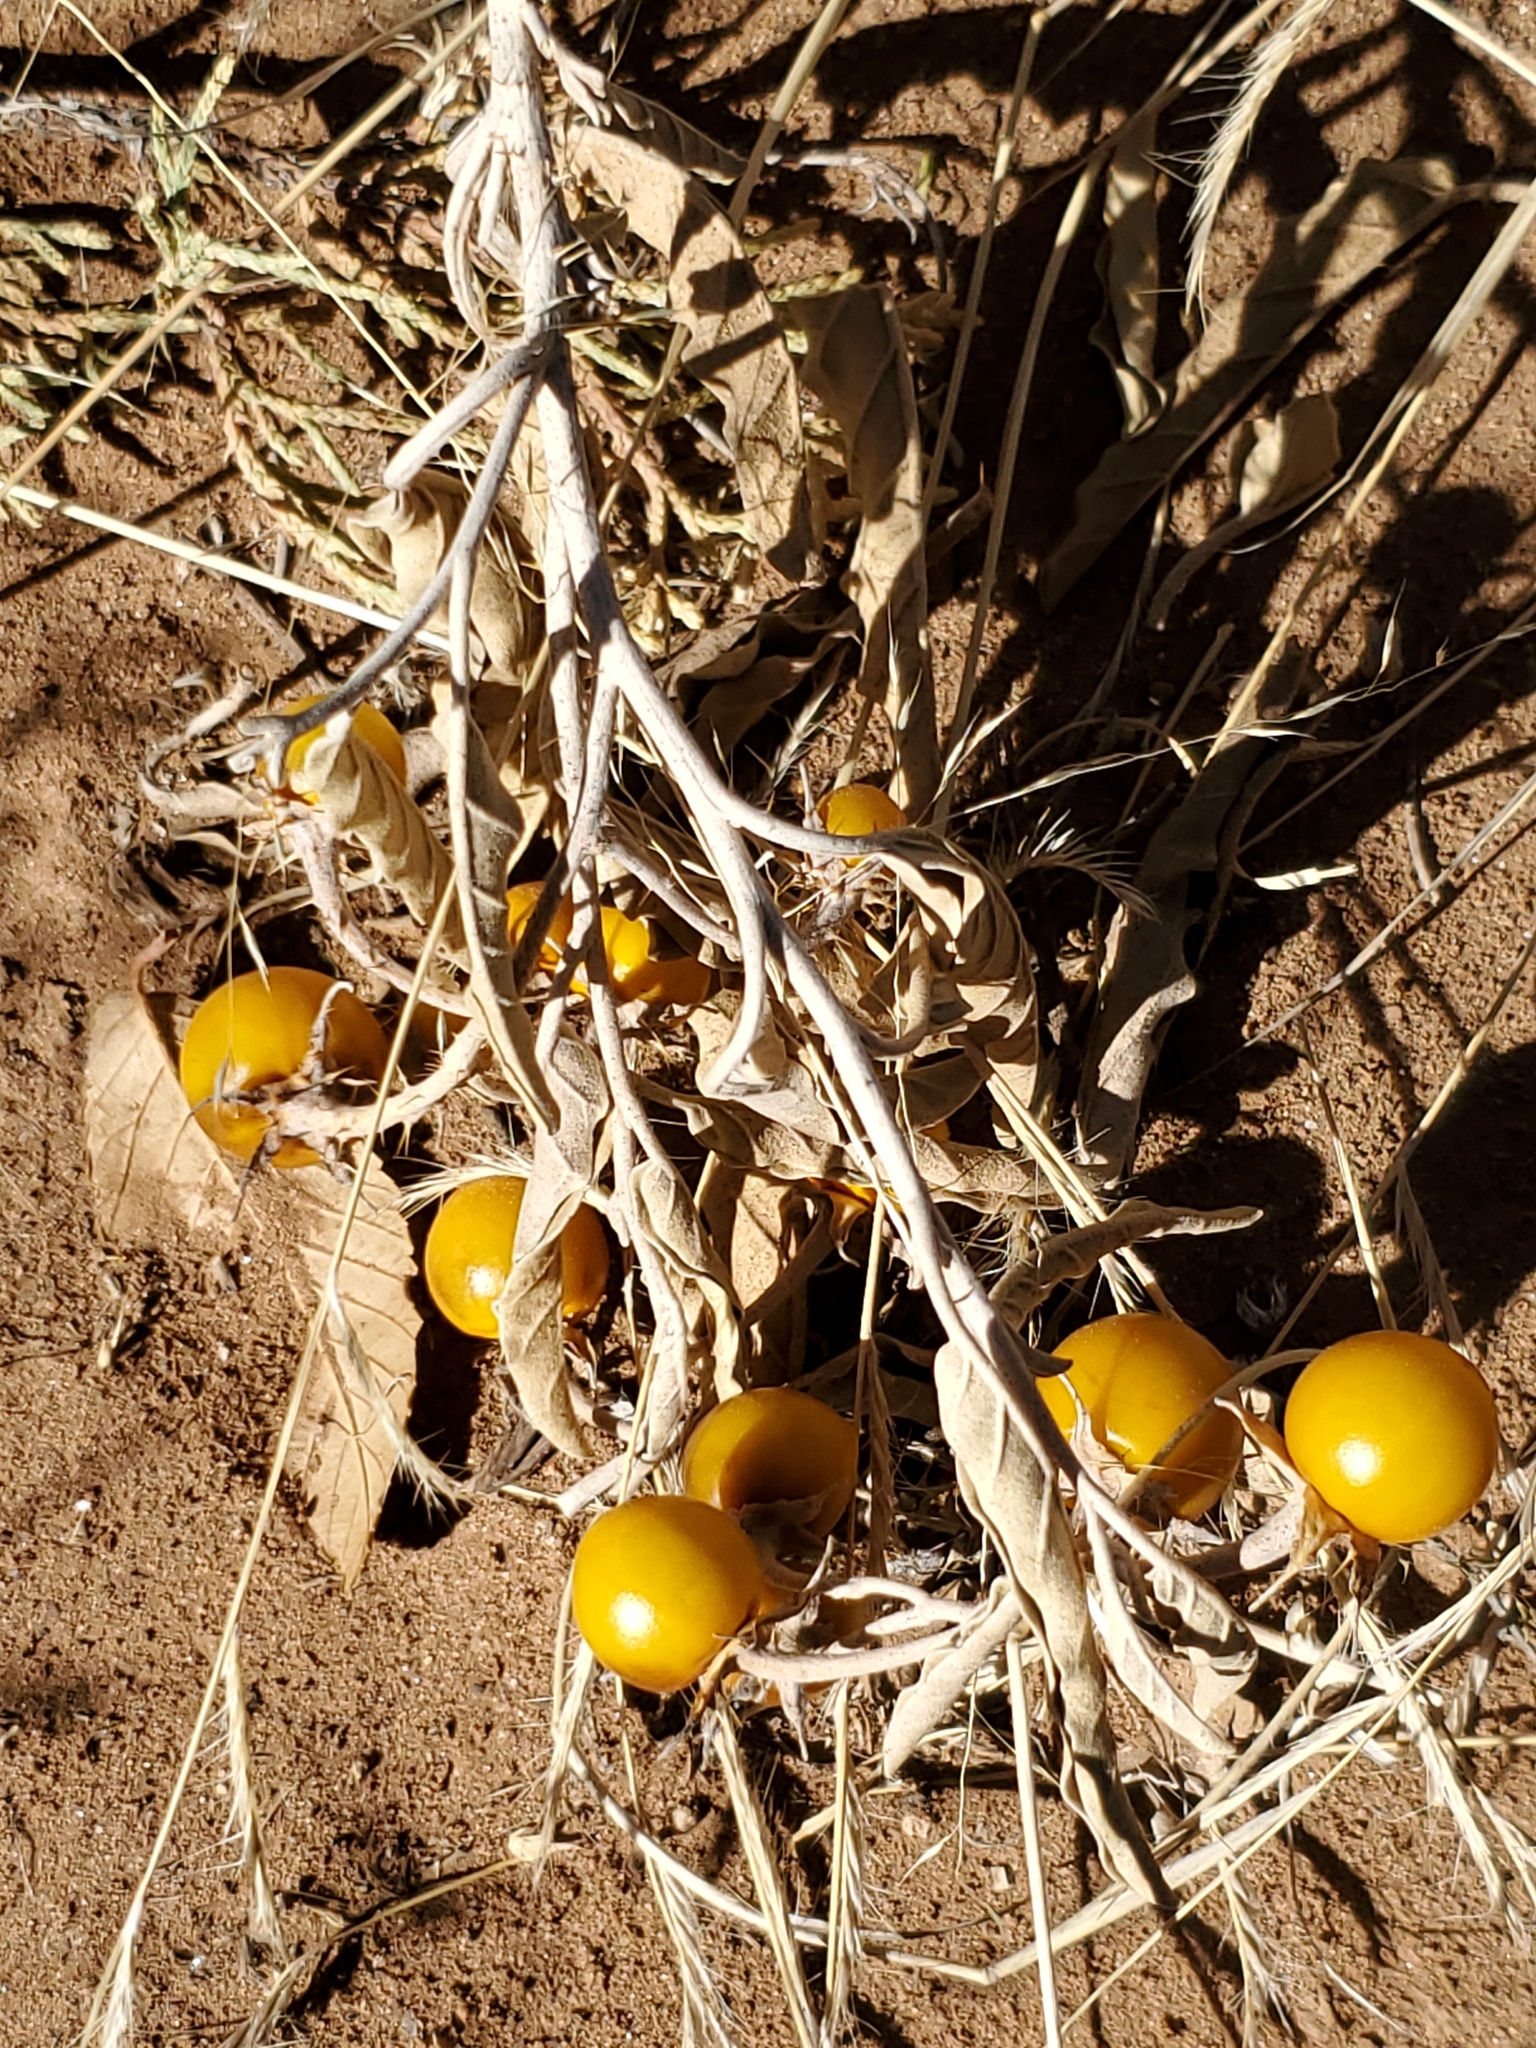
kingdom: Plantae
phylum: Tracheophyta
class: Magnoliopsida
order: Solanales
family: Solanaceae
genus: Solanum
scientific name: Solanum elaeagnifolium
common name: Silverleaf nightshade
